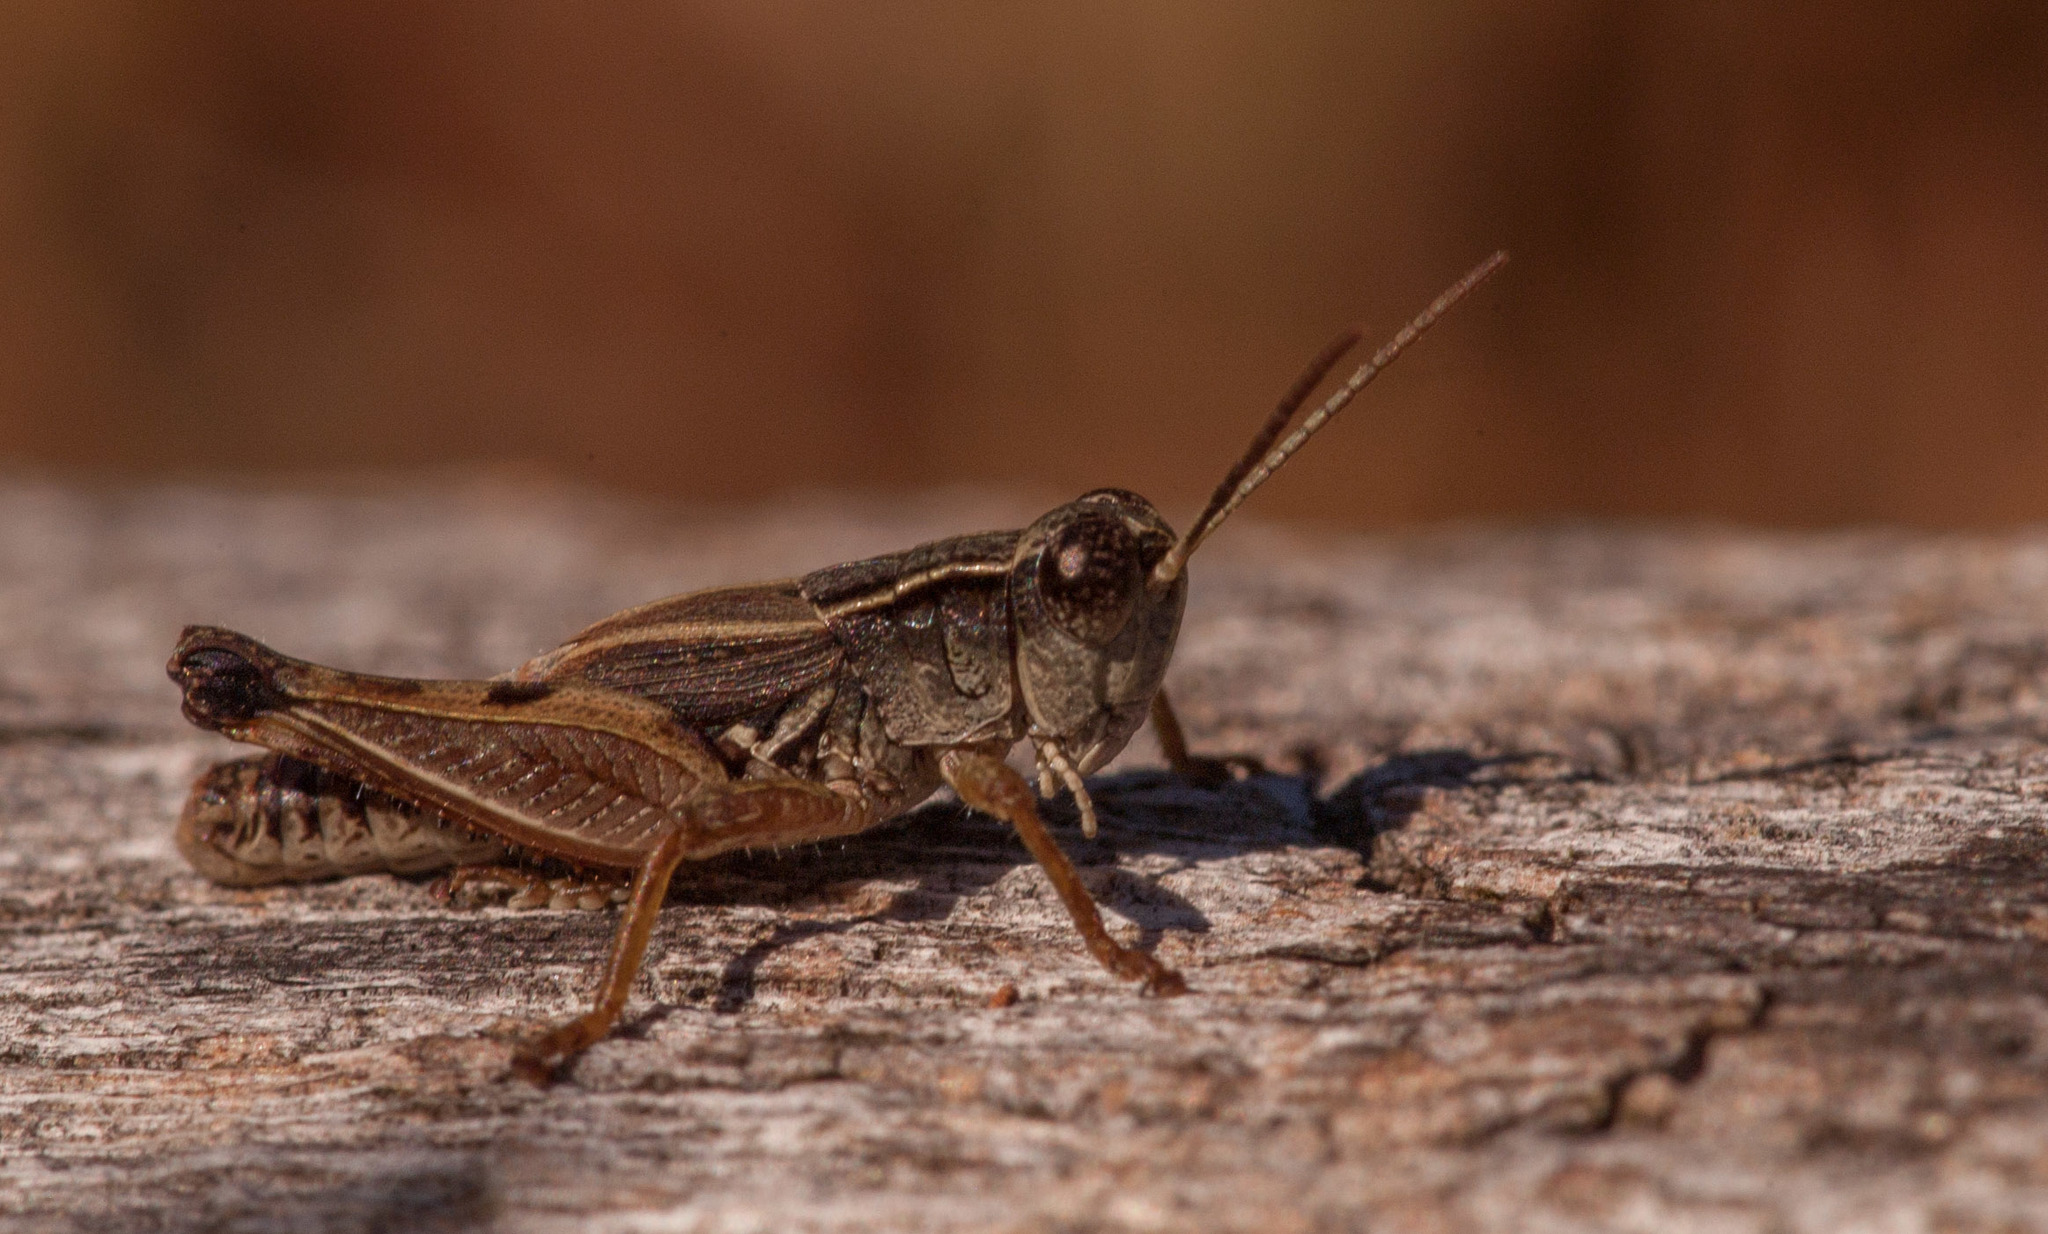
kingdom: Animalia
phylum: Arthropoda
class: Insecta
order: Orthoptera
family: Acrididae
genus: Phaulacridium
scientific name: Phaulacridium vittatum
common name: Wingless grasshopper
